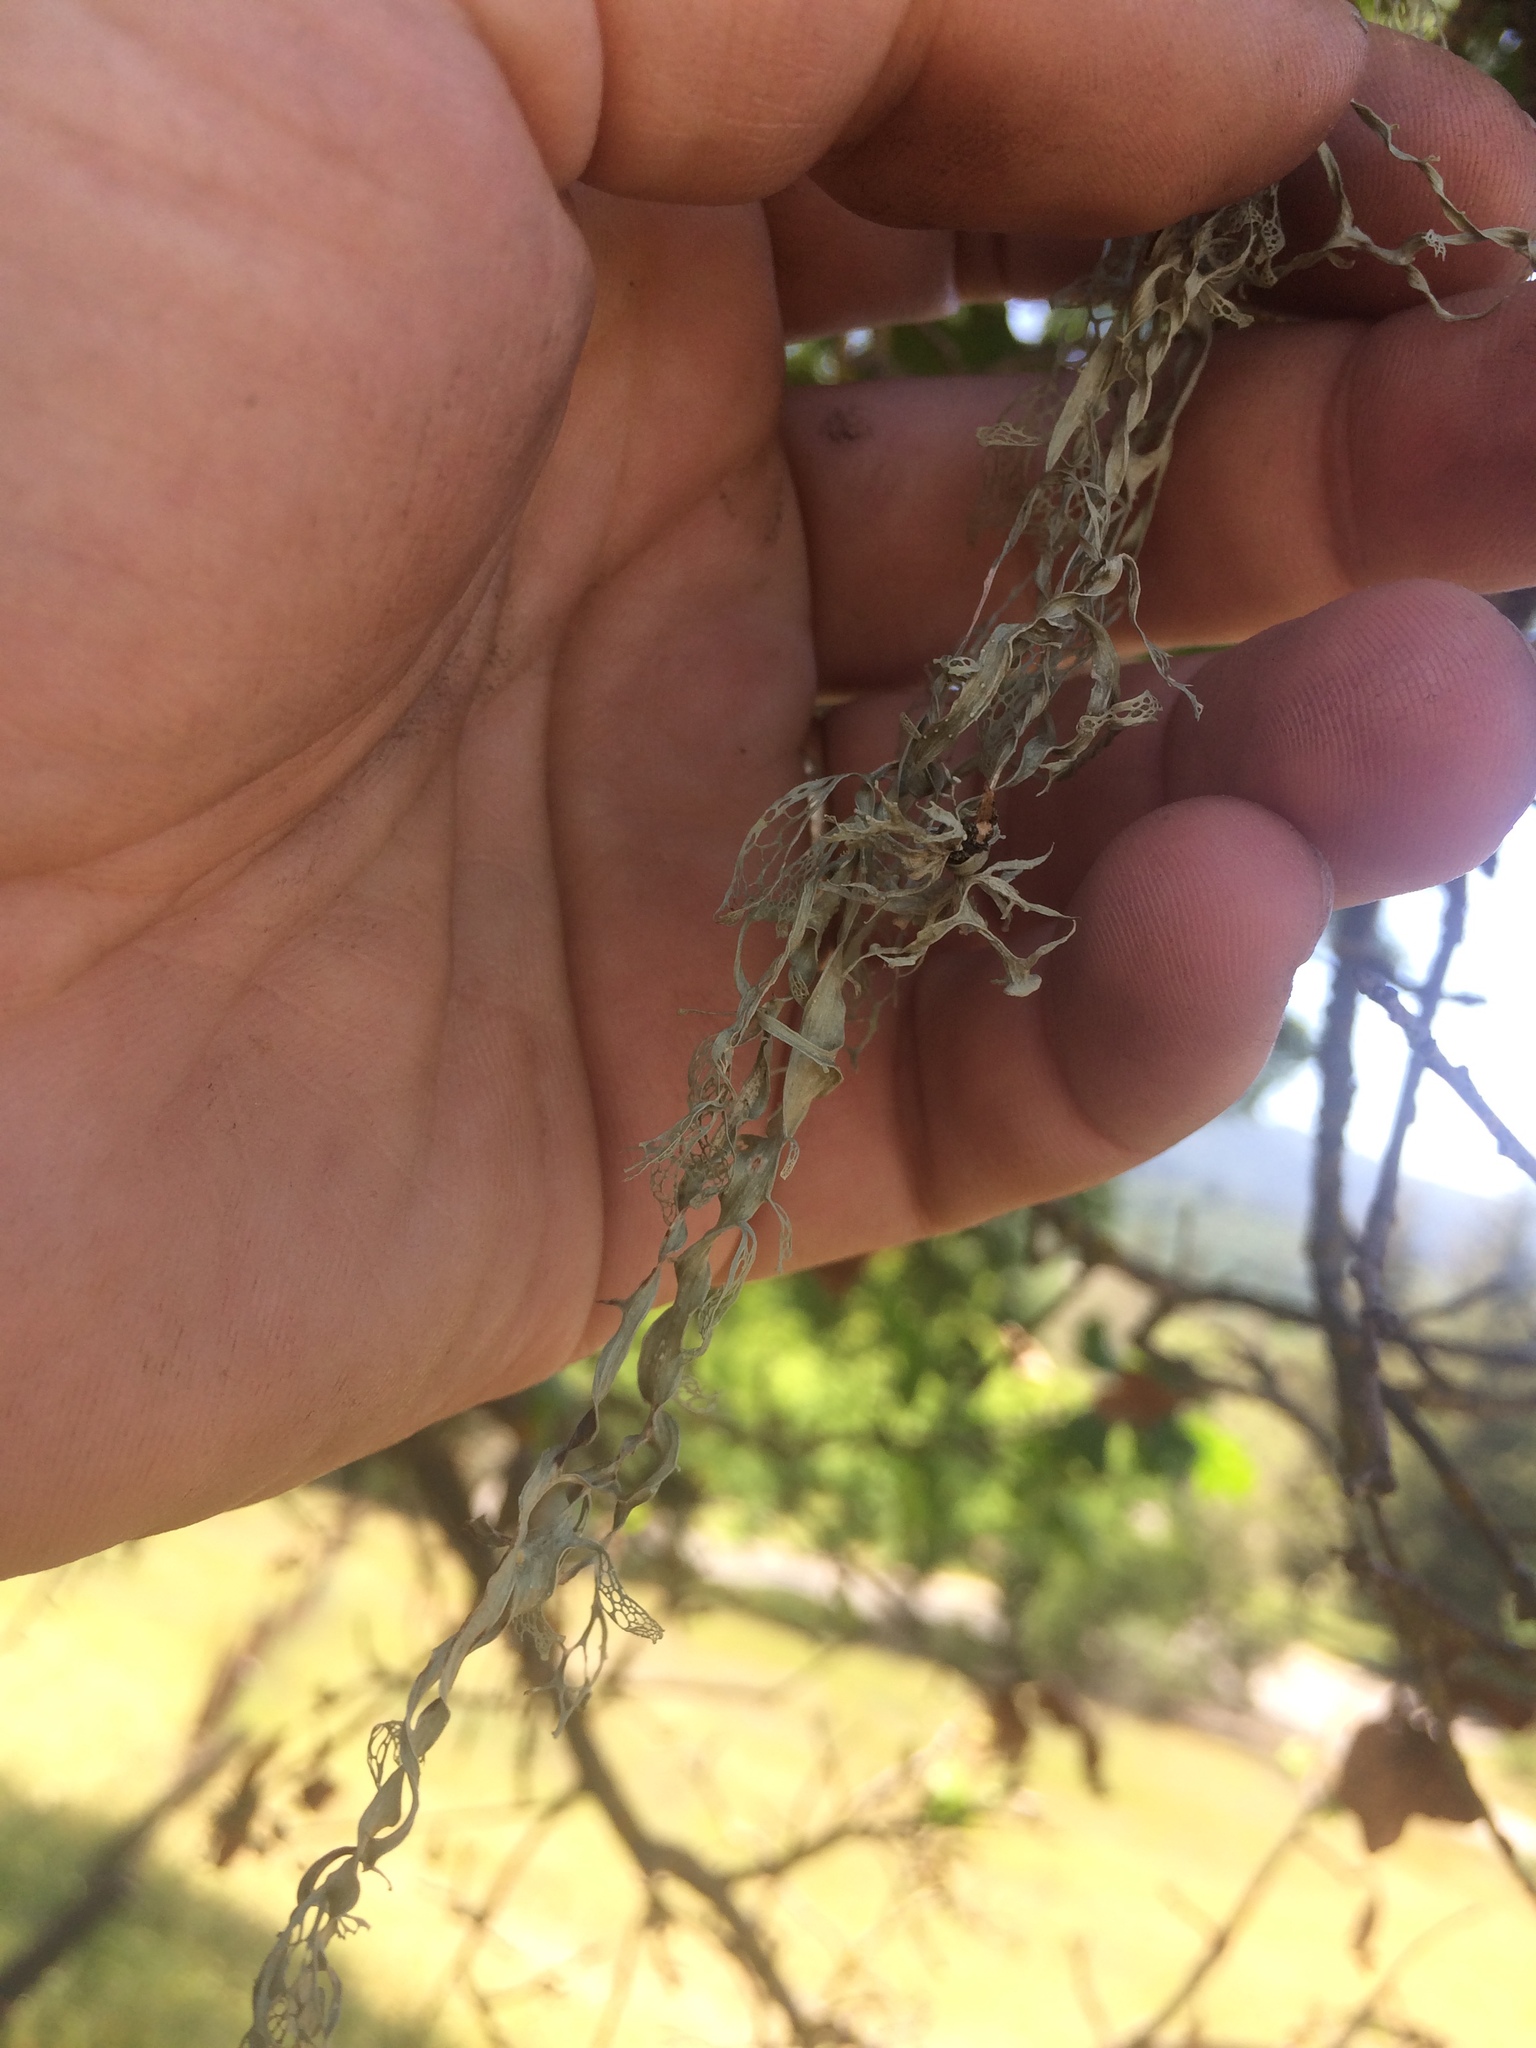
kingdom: Fungi
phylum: Ascomycota
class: Lecanoromycetes
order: Lecanorales
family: Ramalinaceae
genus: Ramalina
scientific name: Ramalina menziesii
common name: Lace lichen
